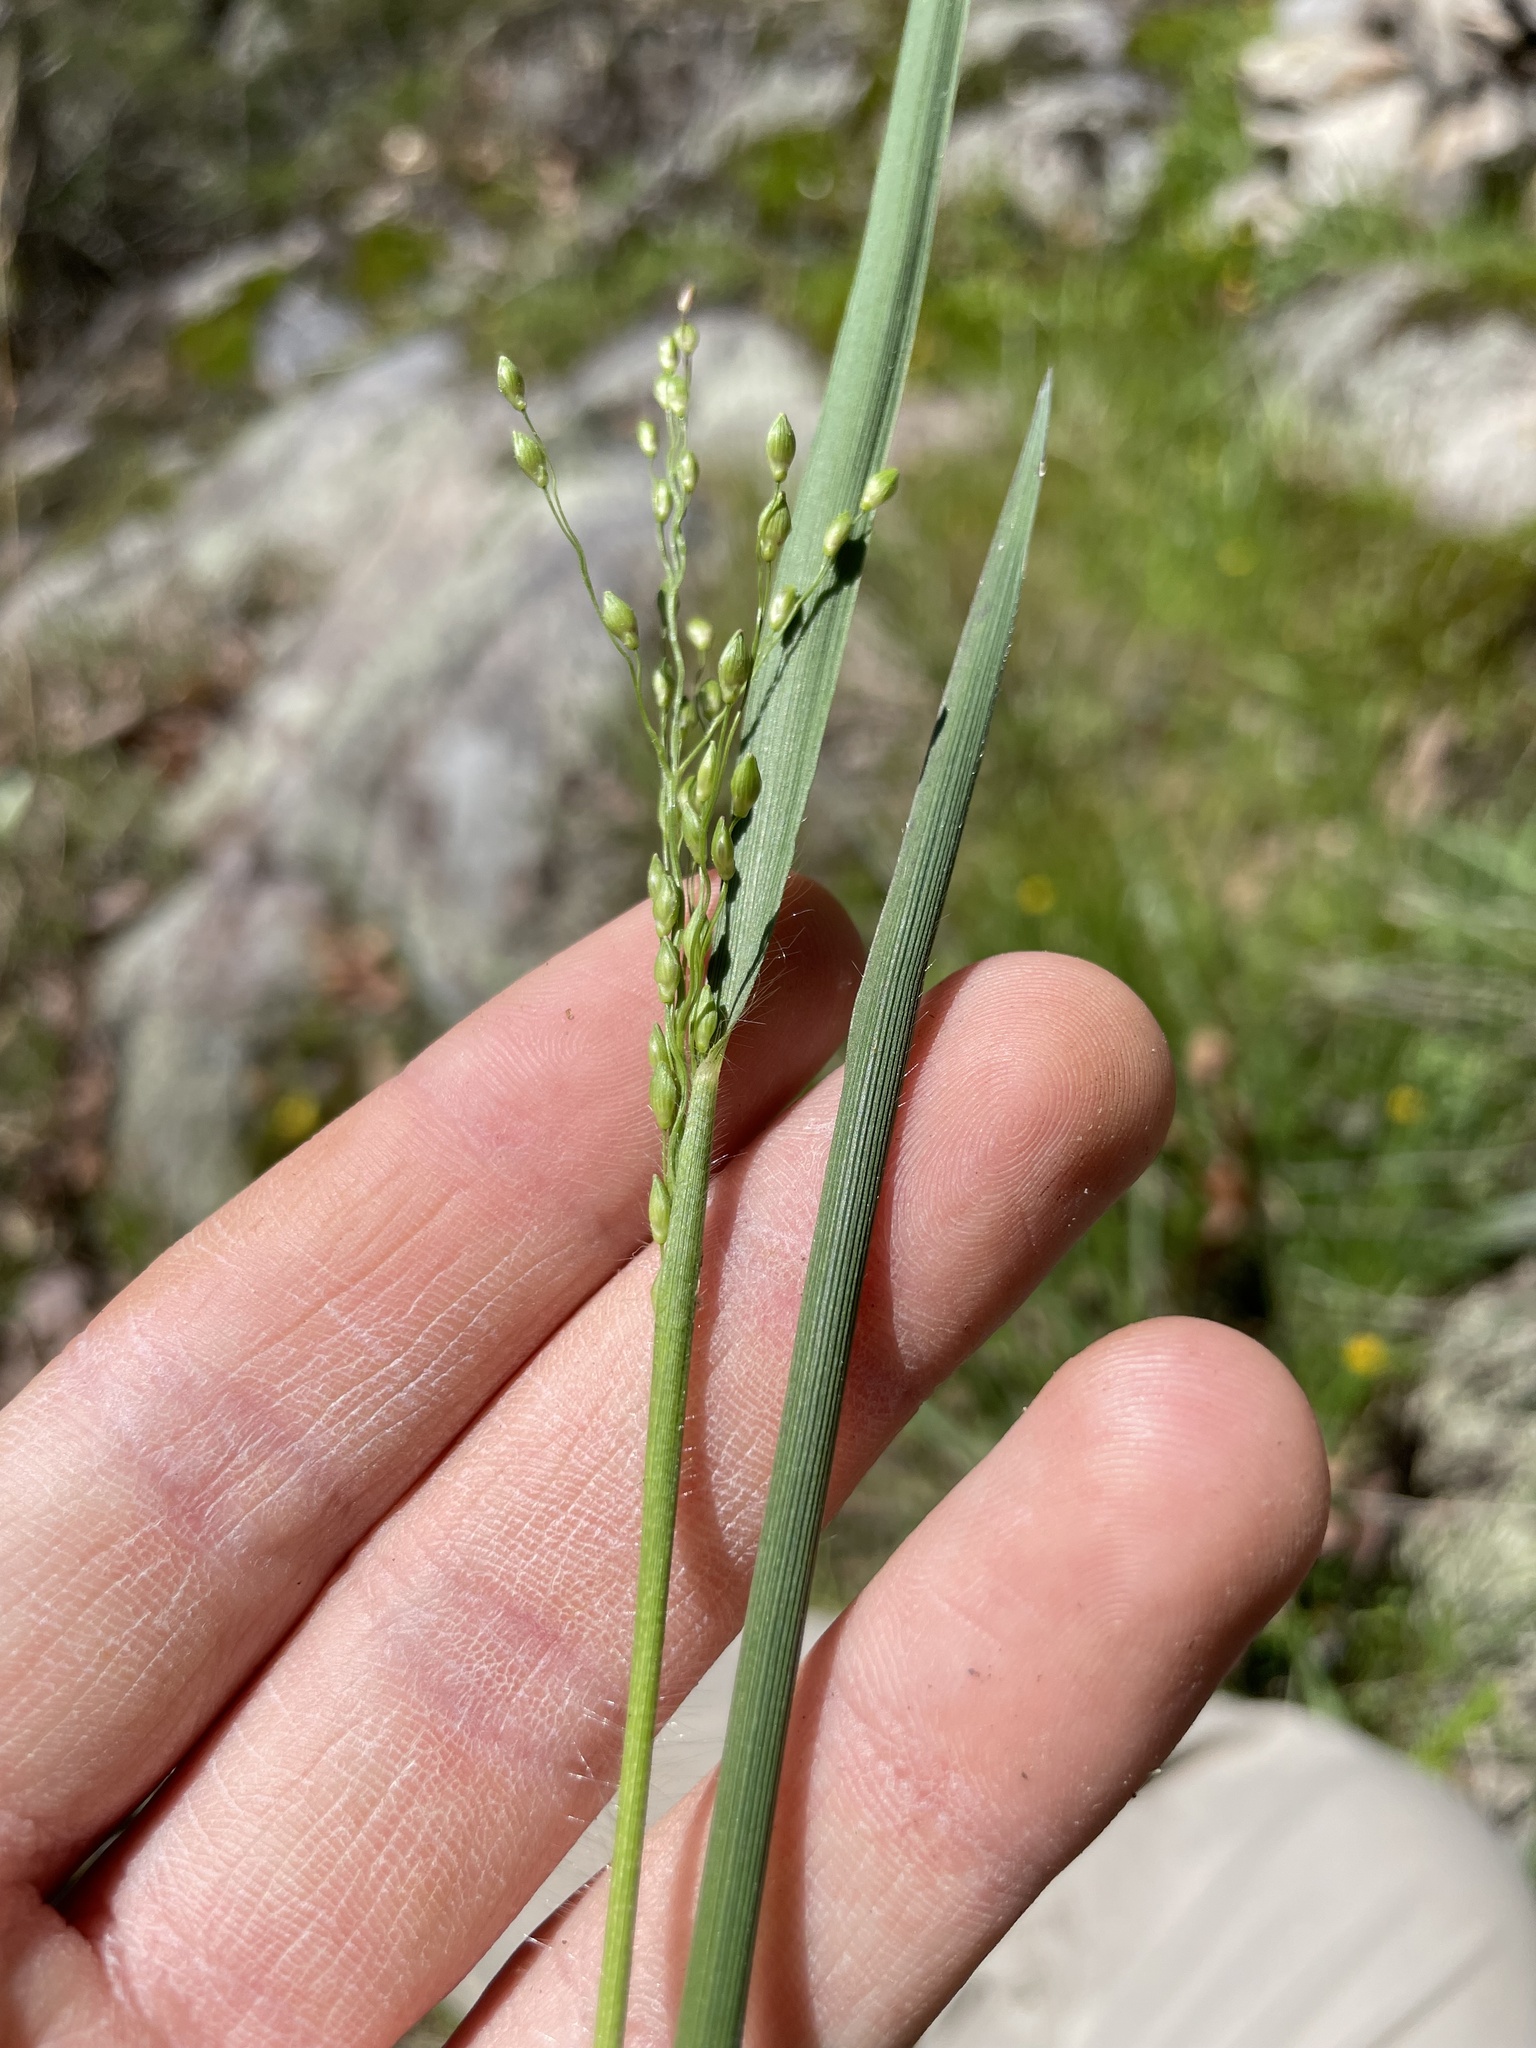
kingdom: Plantae
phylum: Tracheophyta
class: Liliopsida
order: Poales
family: Poaceae
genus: Dichanthelium
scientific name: Dichanthelium depauperatum
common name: Depauperate panicgrass
